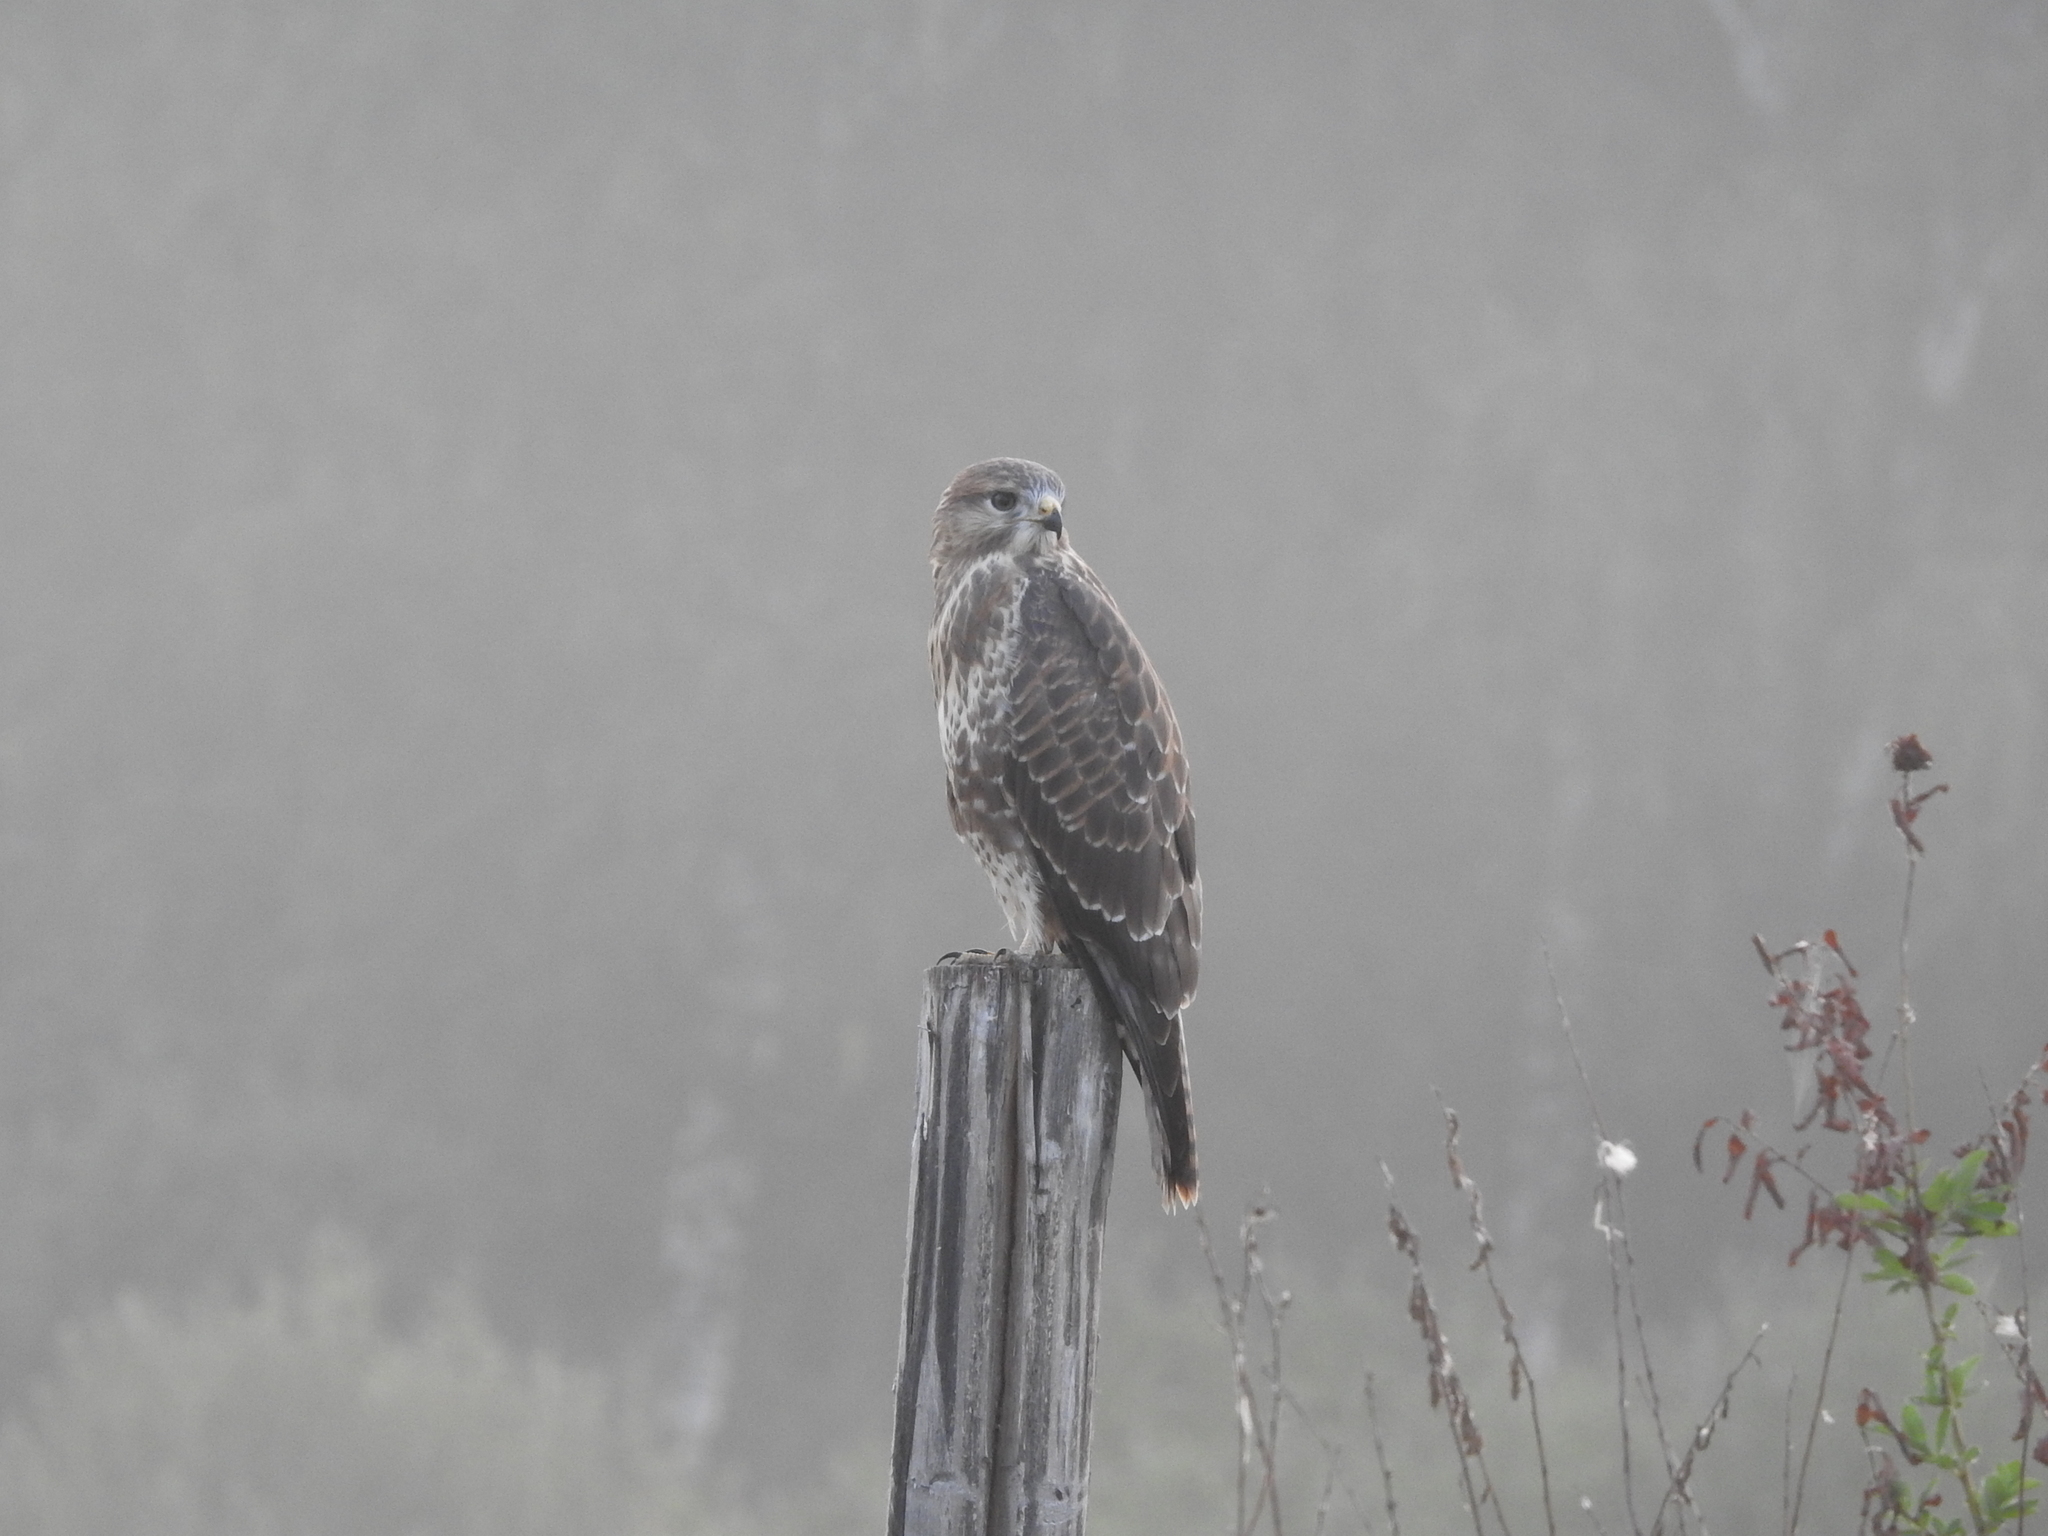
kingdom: Animalia
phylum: Chordata
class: Aves
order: Accipitriformes
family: Accipitridae
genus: Buteo
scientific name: Buteo buteo
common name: Common buzzard
